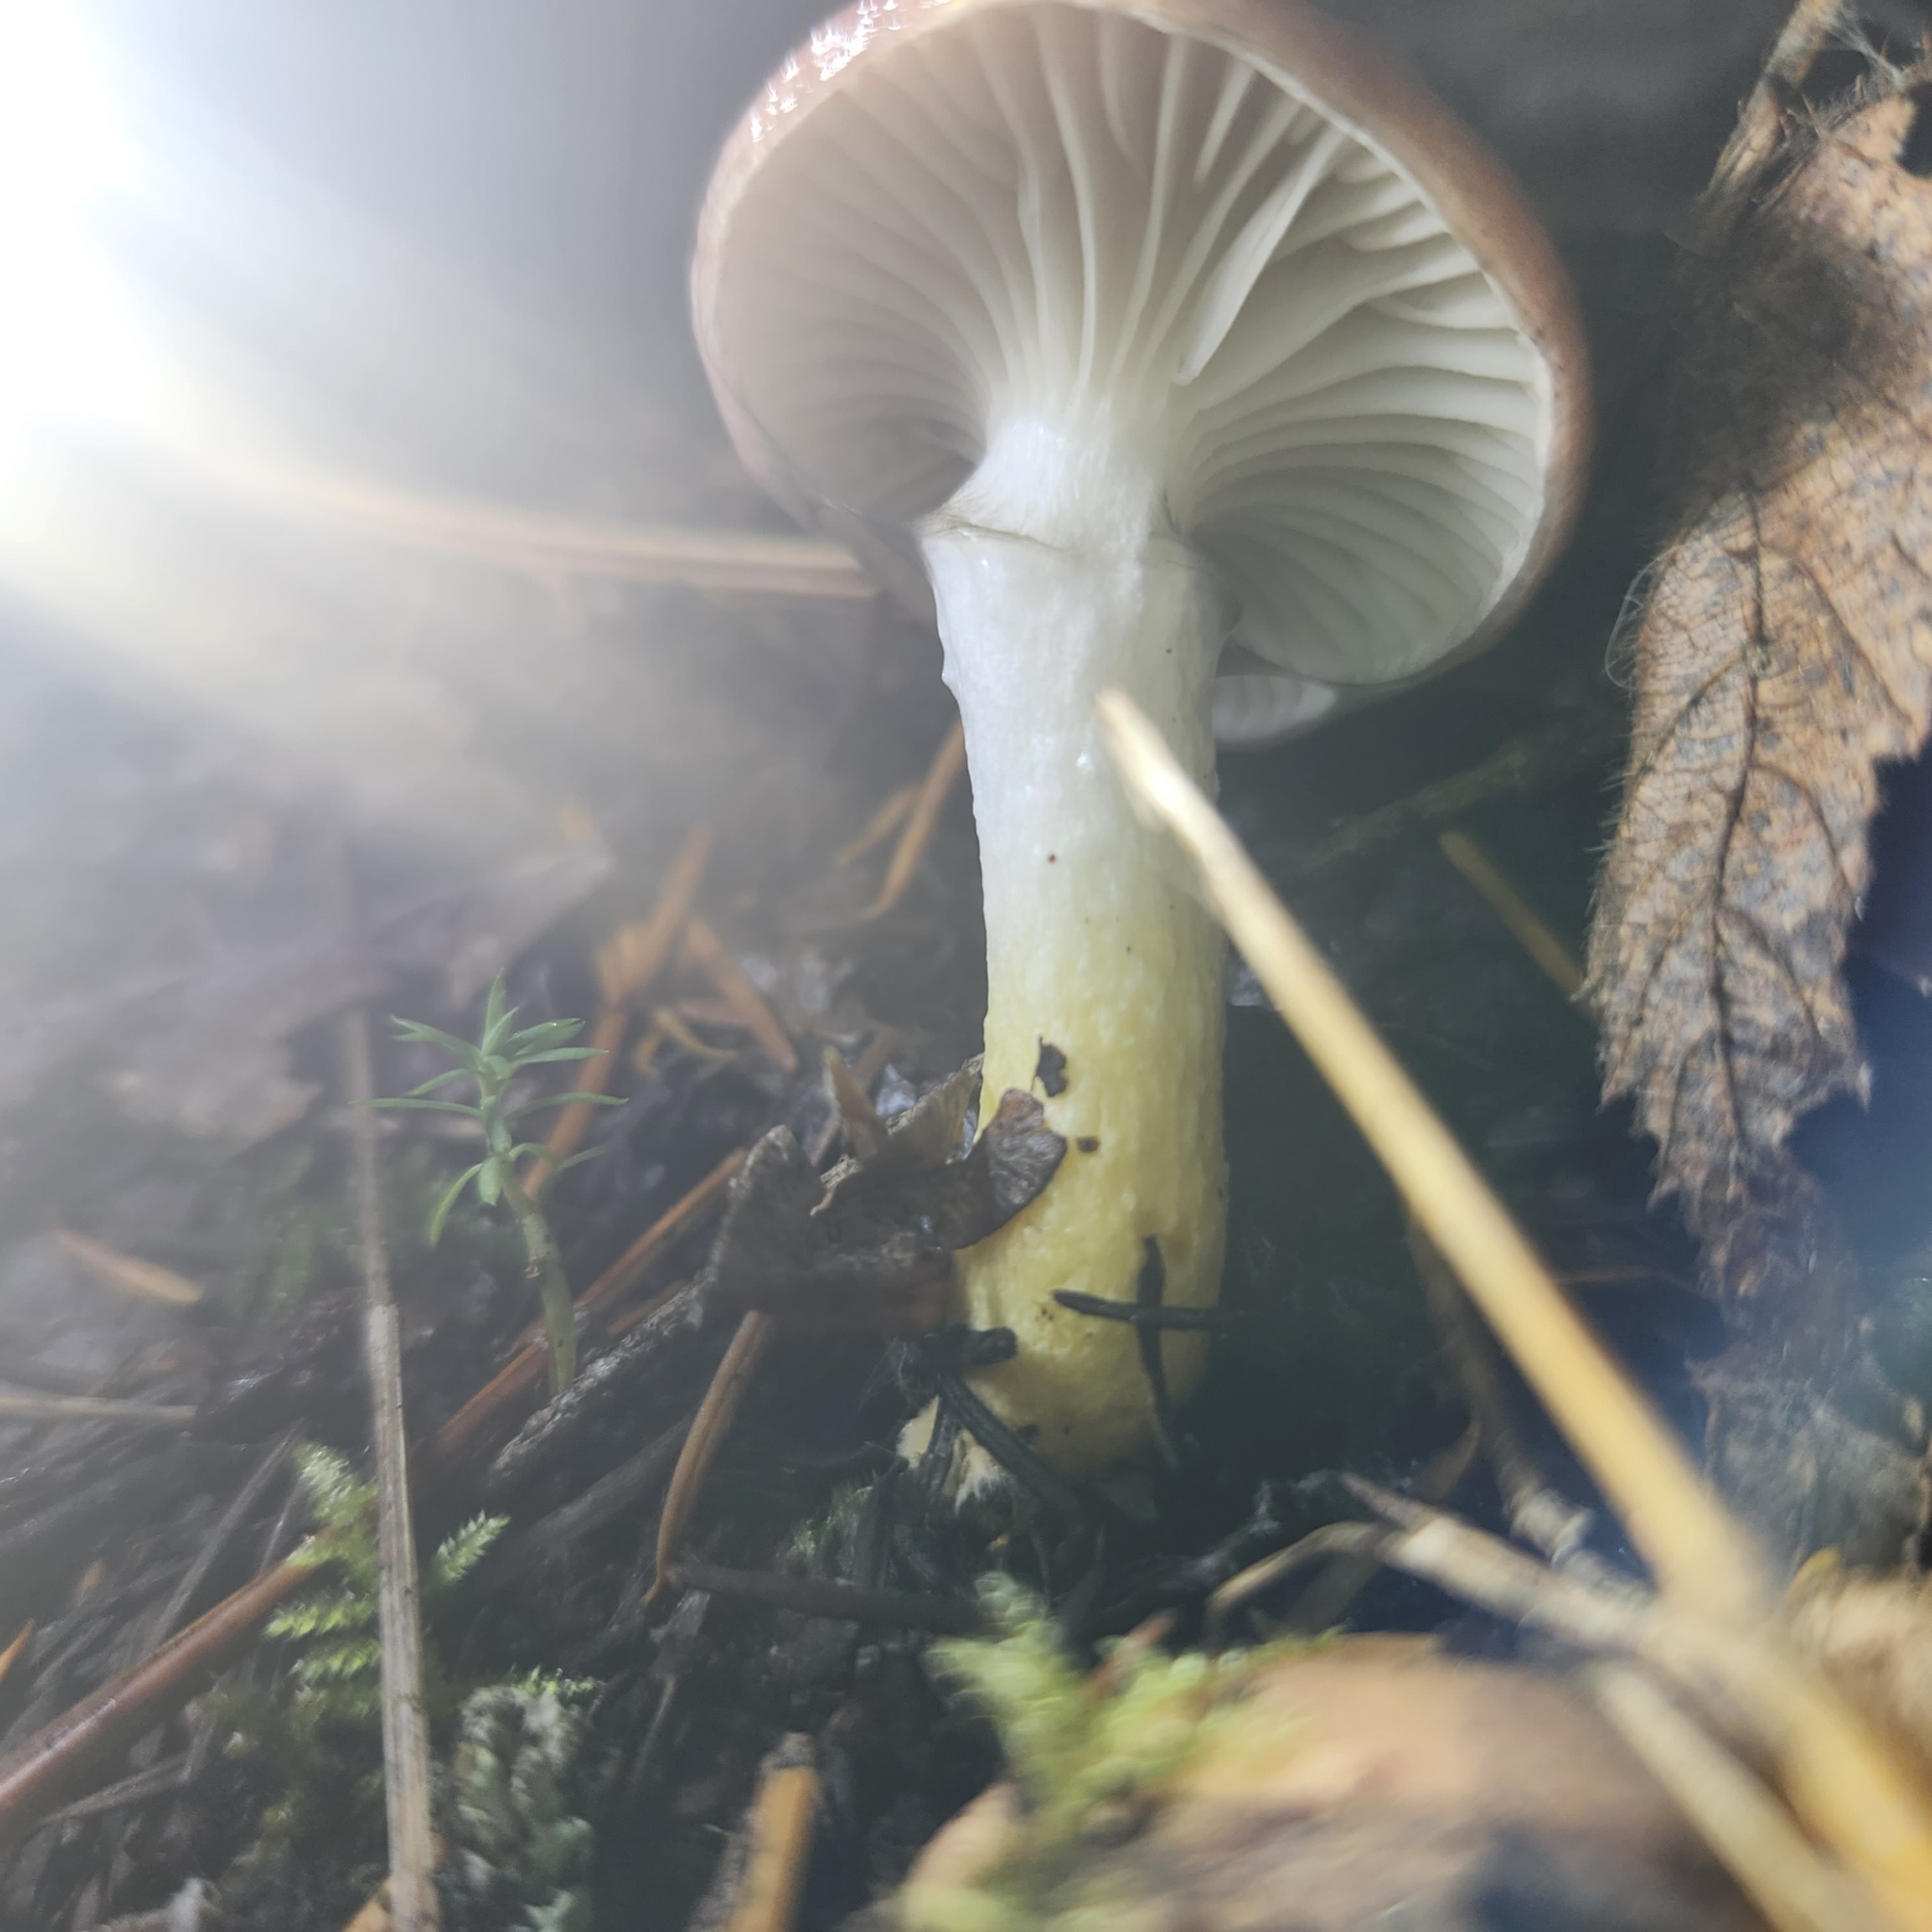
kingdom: Fungi
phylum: Basidiomycota
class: Agaricomycetes
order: Boletales
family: Gomphidiaceae
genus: Gomphidius
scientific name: Gomphidius subroseus
